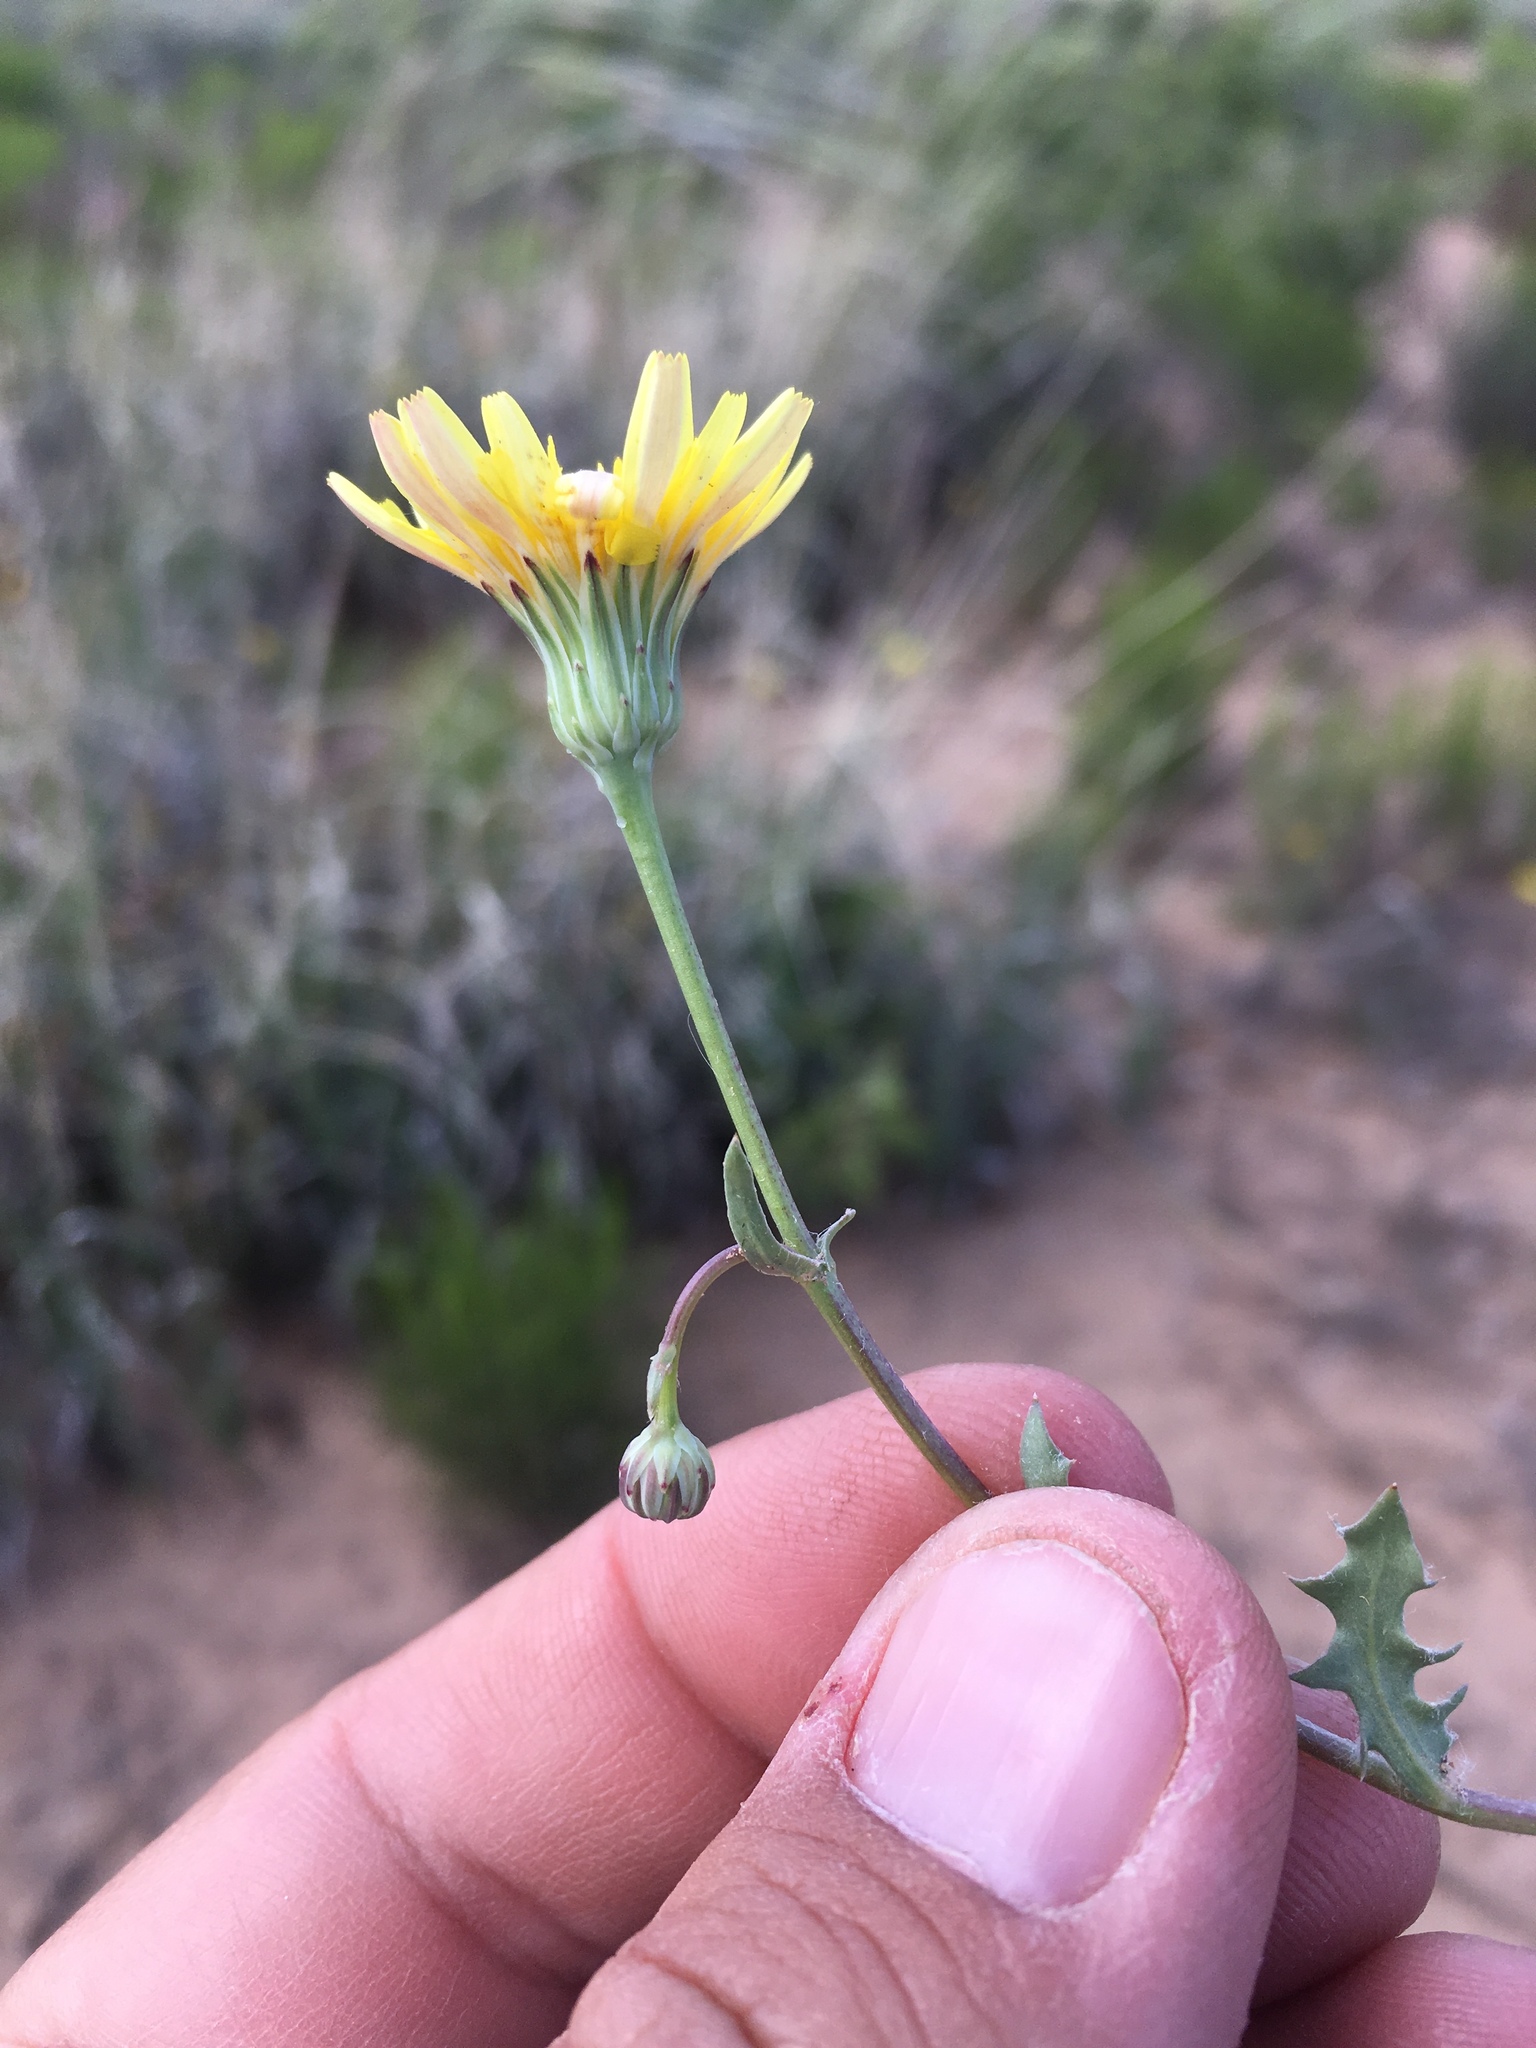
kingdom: Plantae
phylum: Tracheophyta
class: Magnoliopsida
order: Asterales
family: Asteraceae
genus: Malacothrix
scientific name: Malacothrix fendleri
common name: Fendler's desert-dandelion
